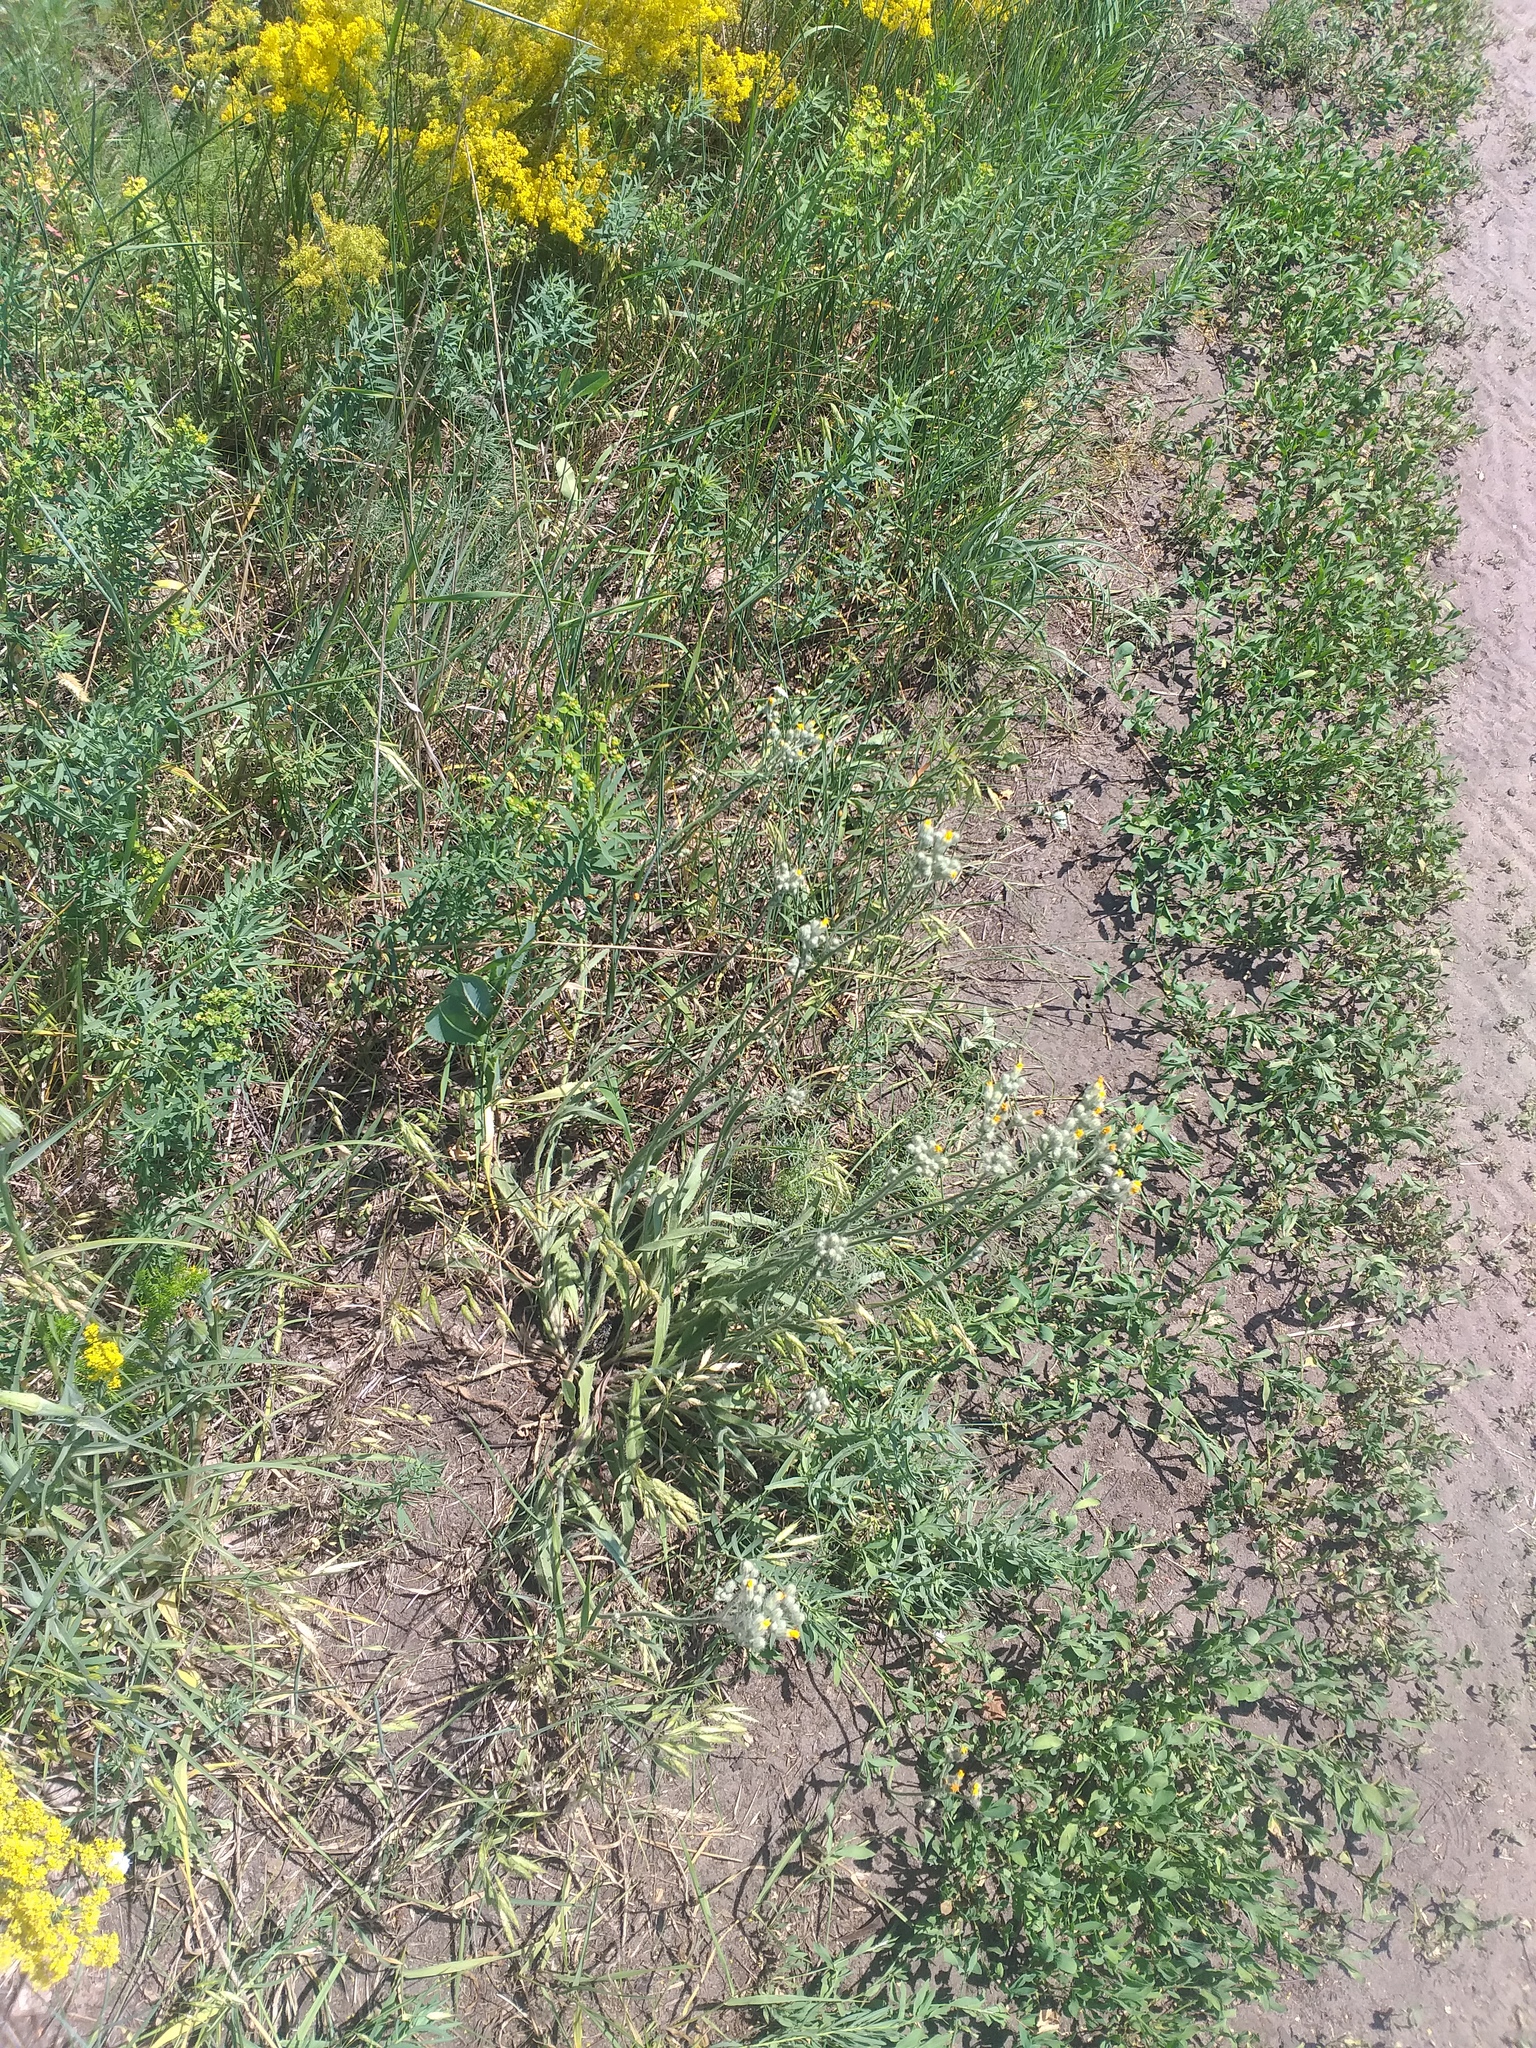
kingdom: Plantae
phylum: Tracheophyta
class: Magnoliopsida
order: Asterales
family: Asteraceae
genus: Pilosella
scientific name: Pilosella echioides
